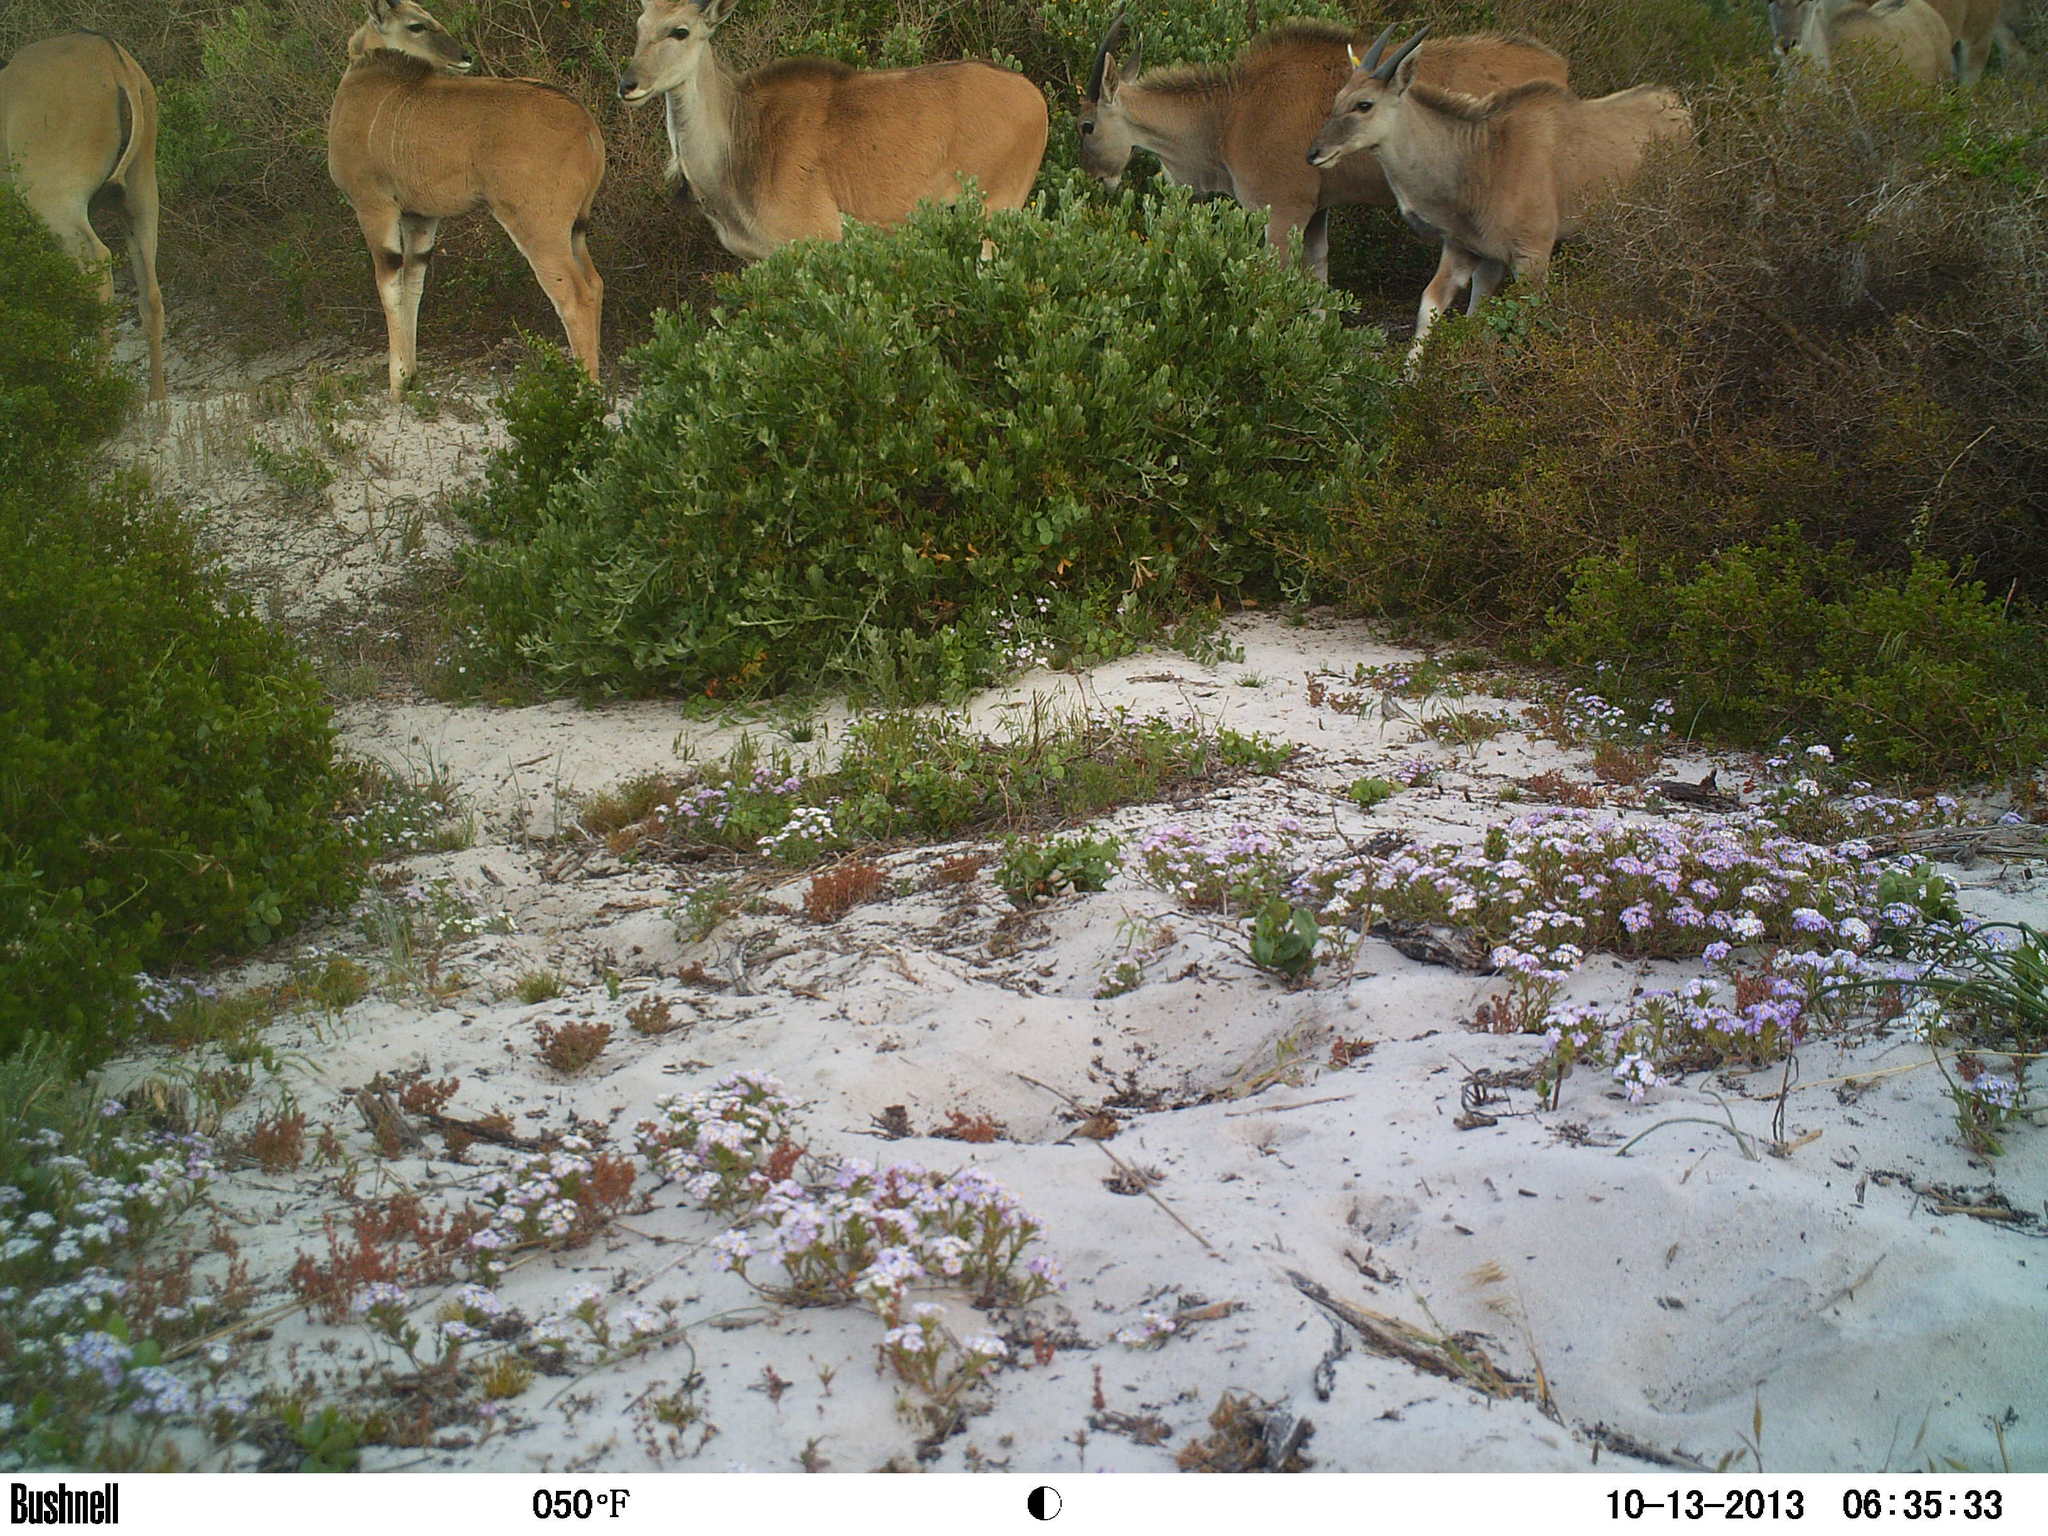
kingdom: Animalia
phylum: Chordata
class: Mammalia
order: Artiodactyla
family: Bovidae
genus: Taurotragus
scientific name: Taurotragus oryx
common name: Common eland
